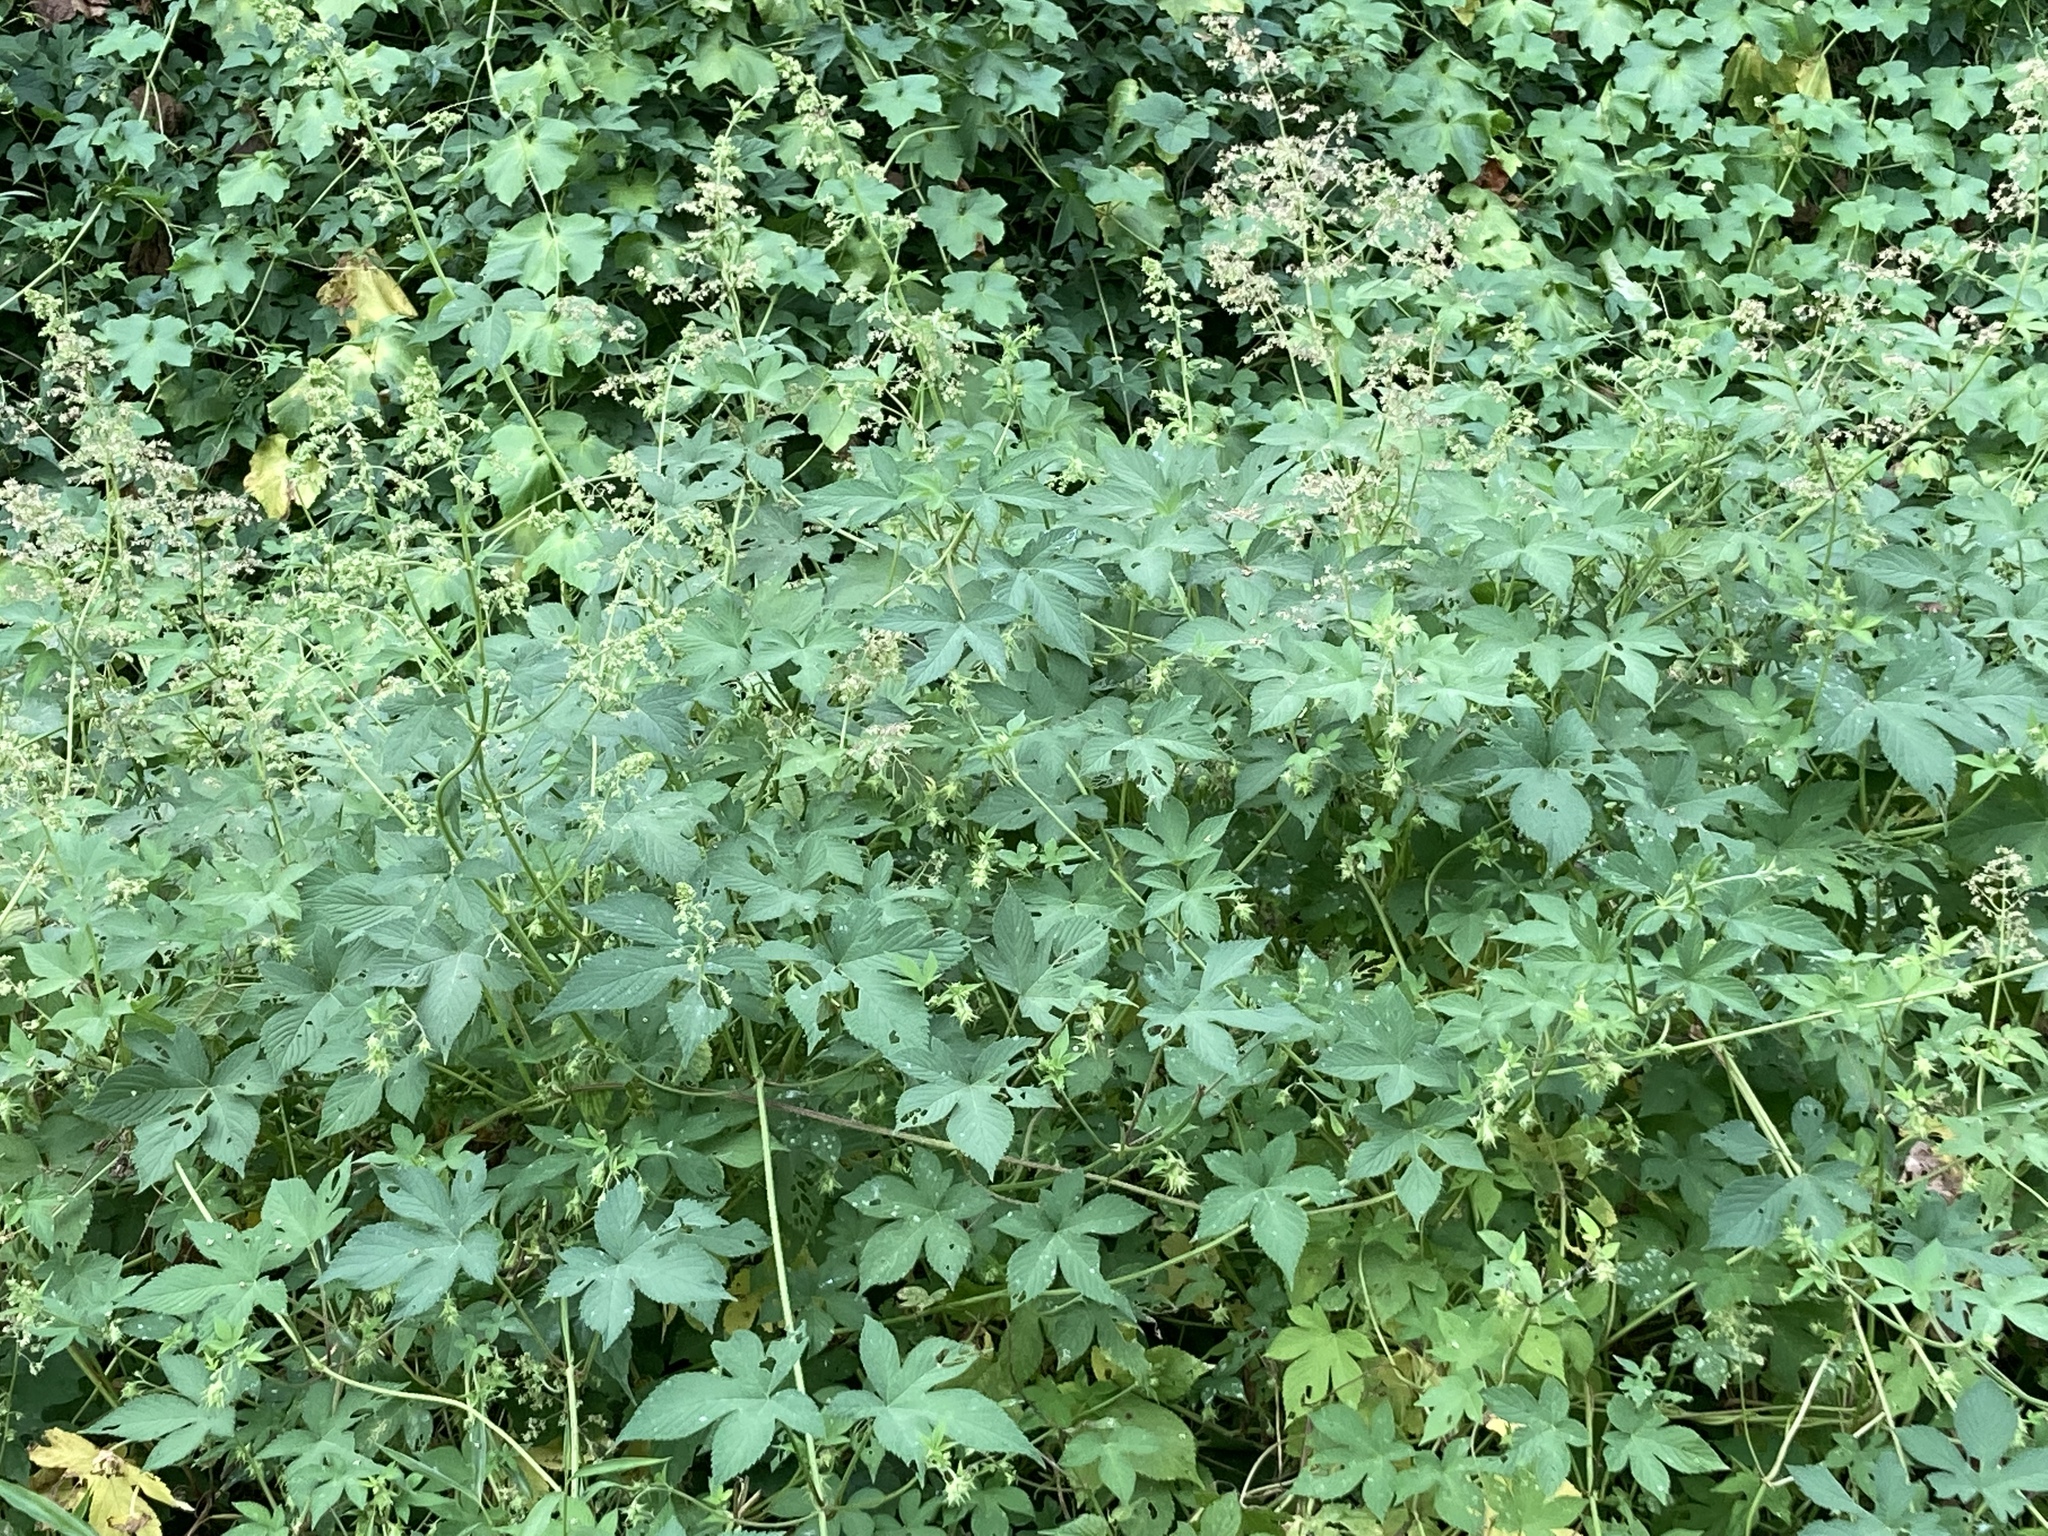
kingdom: Plantae
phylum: Tracheophyta
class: Magnoliopsida
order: Rosales
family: Cannabaceae
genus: Humulus
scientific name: Humulus scandens
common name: Japanese hop
